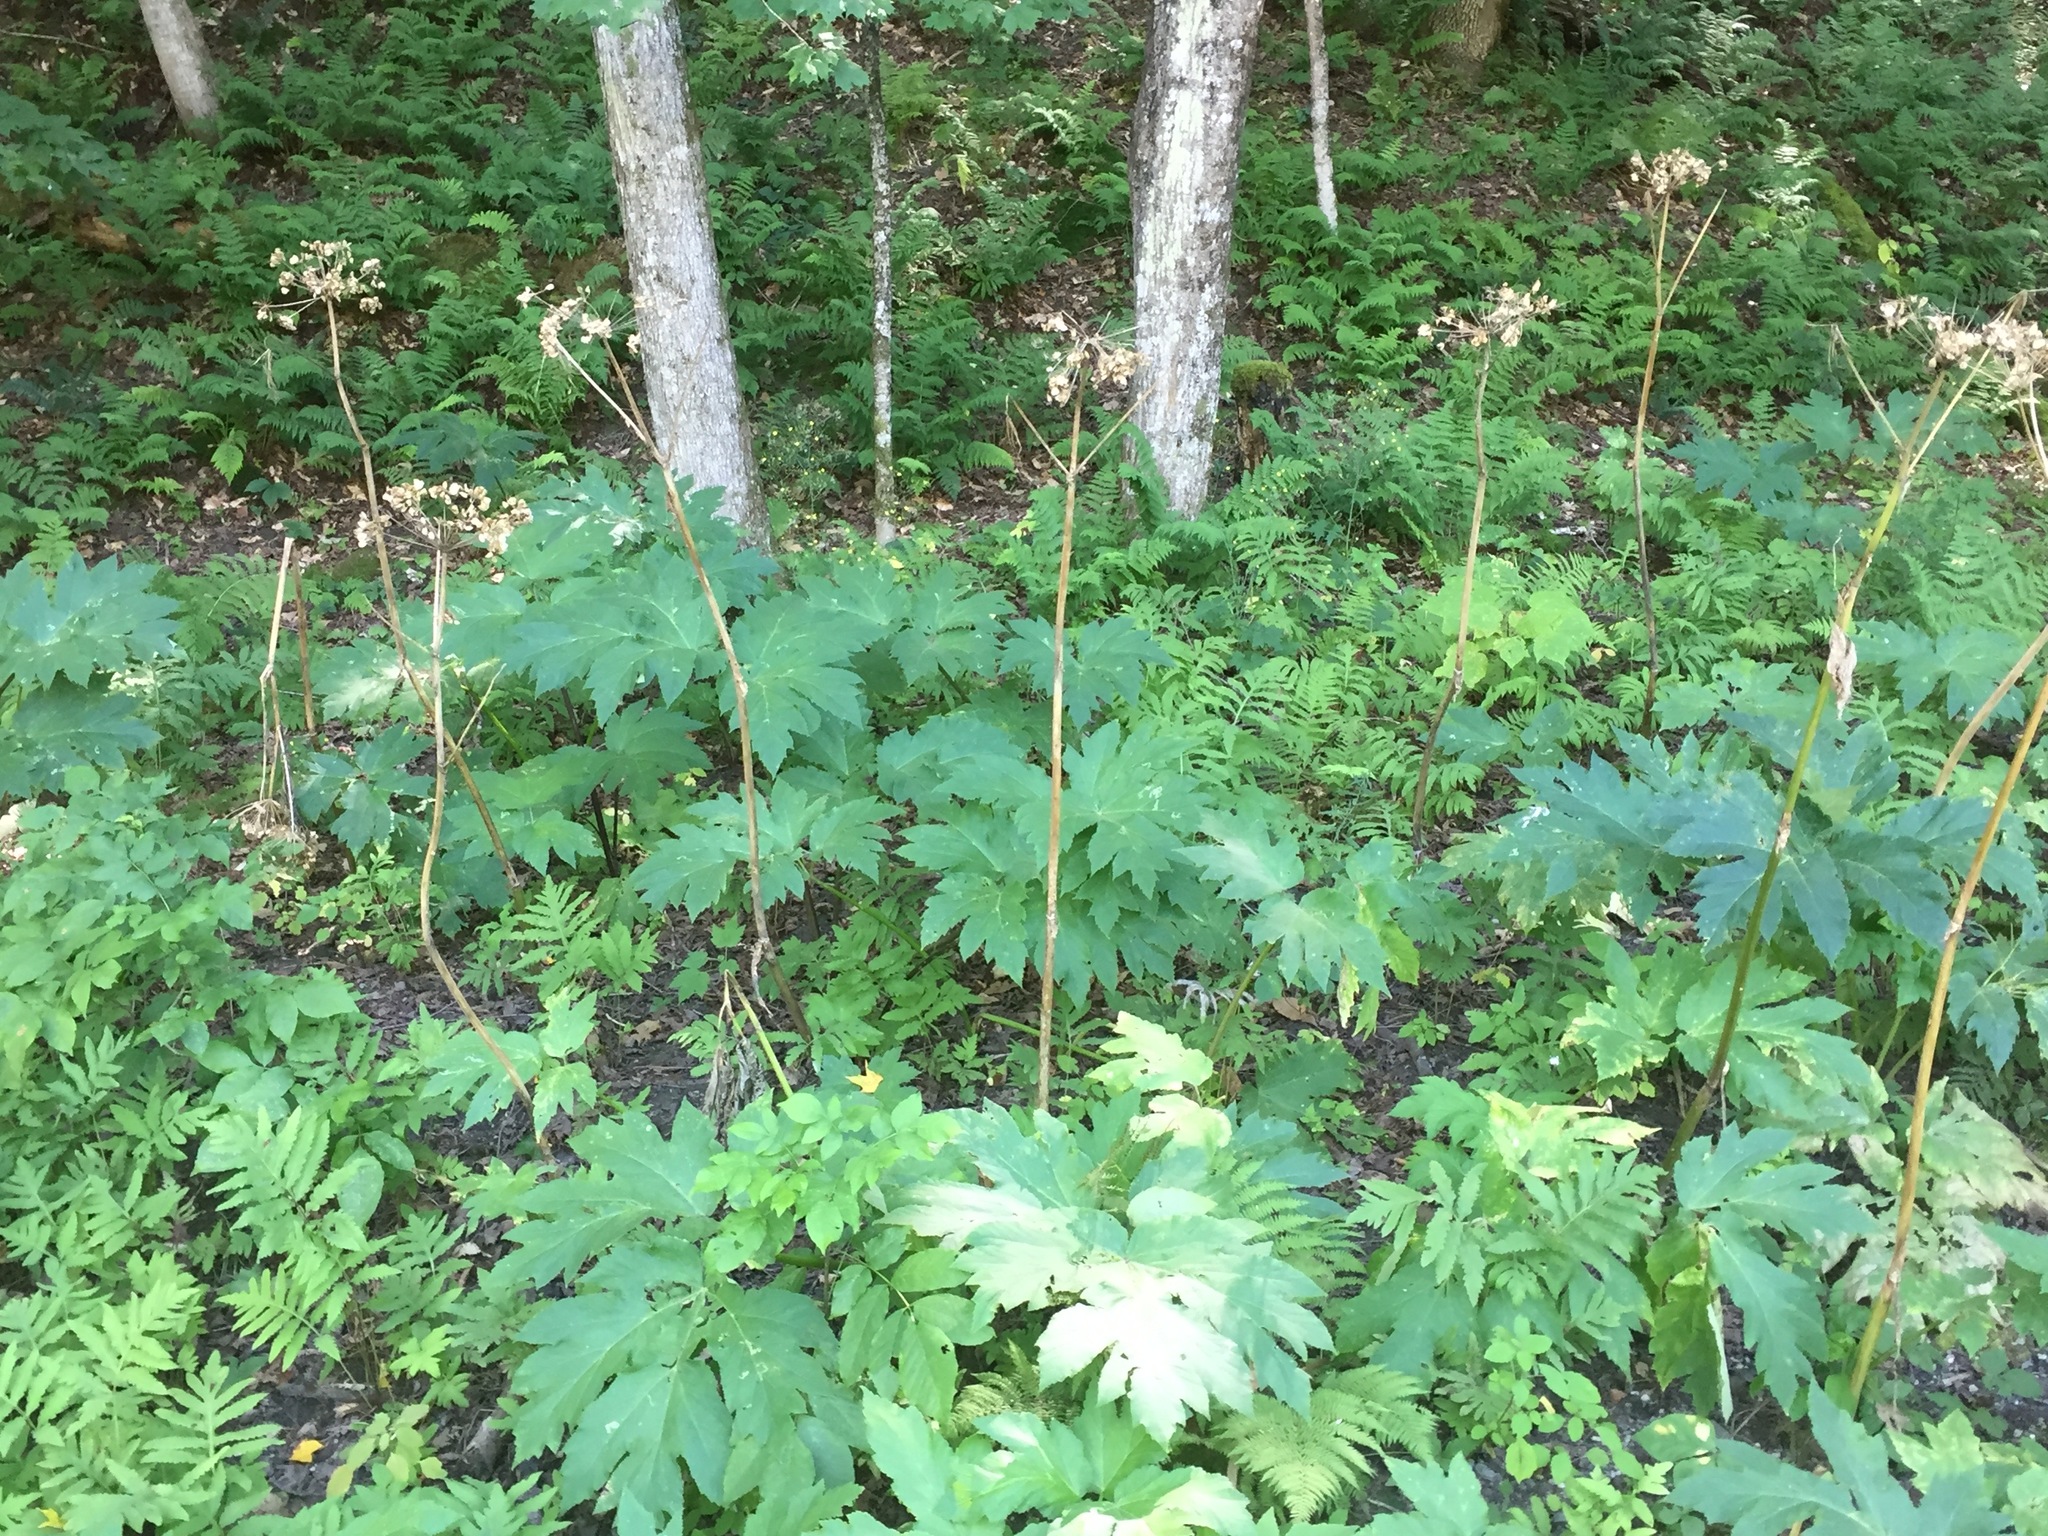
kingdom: Plantae
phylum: Tracheophyta
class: Magnoliopsida
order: Apiales
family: Apiaceae
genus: Heracleum
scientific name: Heracleum maximum
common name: American cow parsnip
